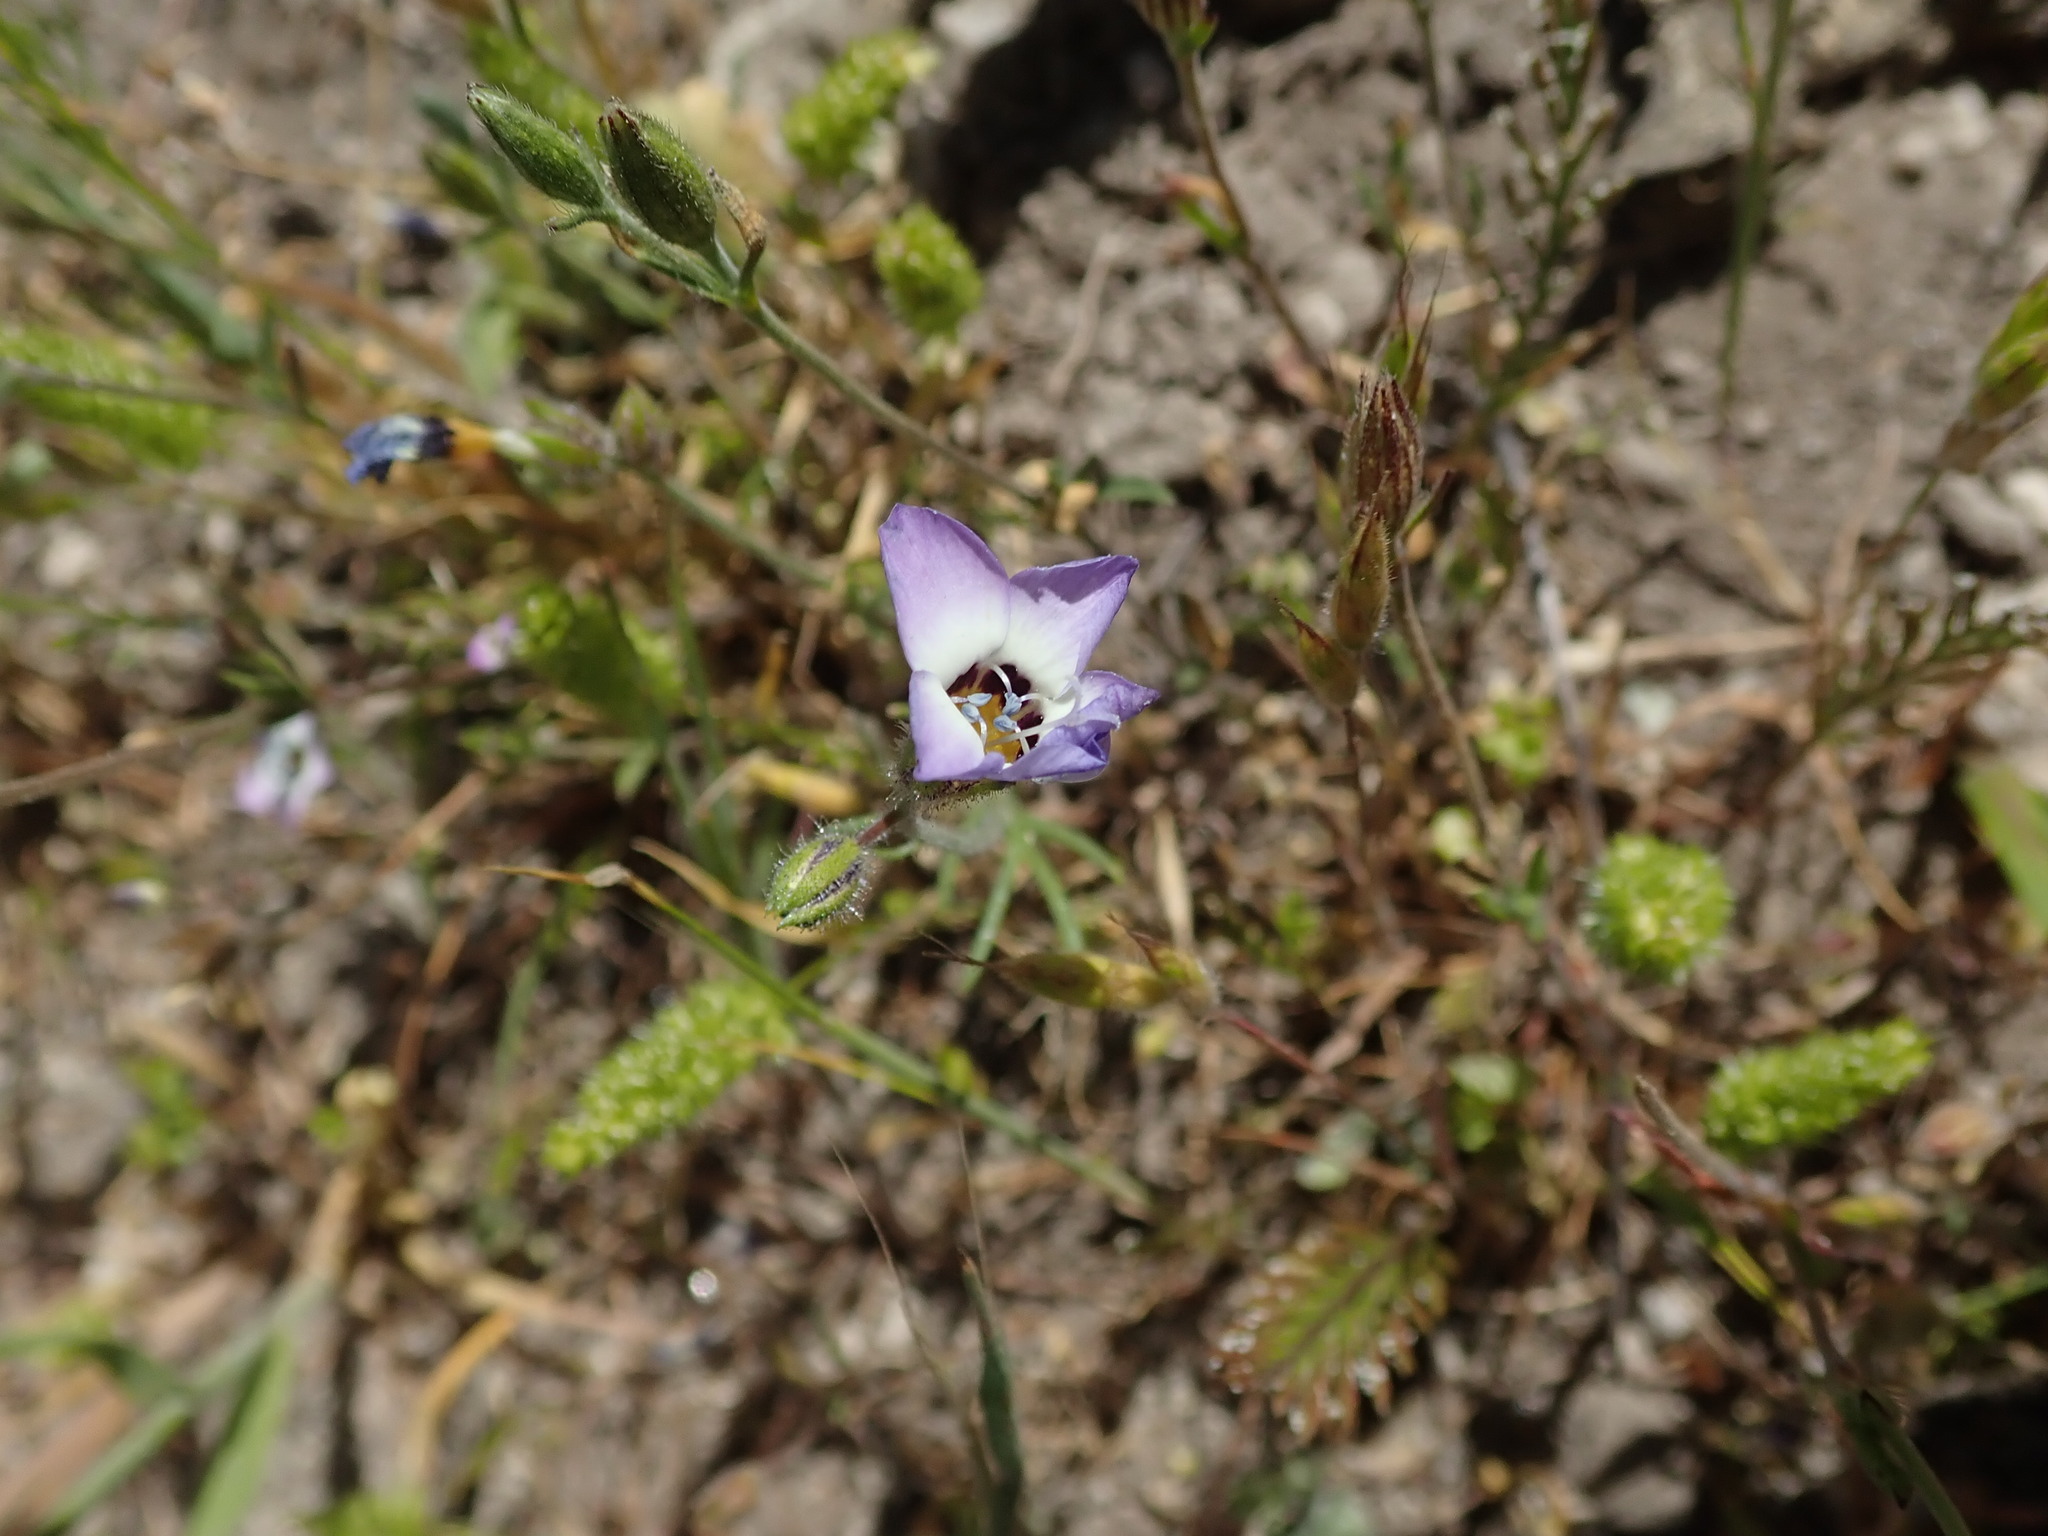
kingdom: Plantae
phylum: Tracheophyta
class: Magnoliopsida
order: Ericales
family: Polemoniaceae
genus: Gilia
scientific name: Gilia tricolor
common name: Bird's-eyes
